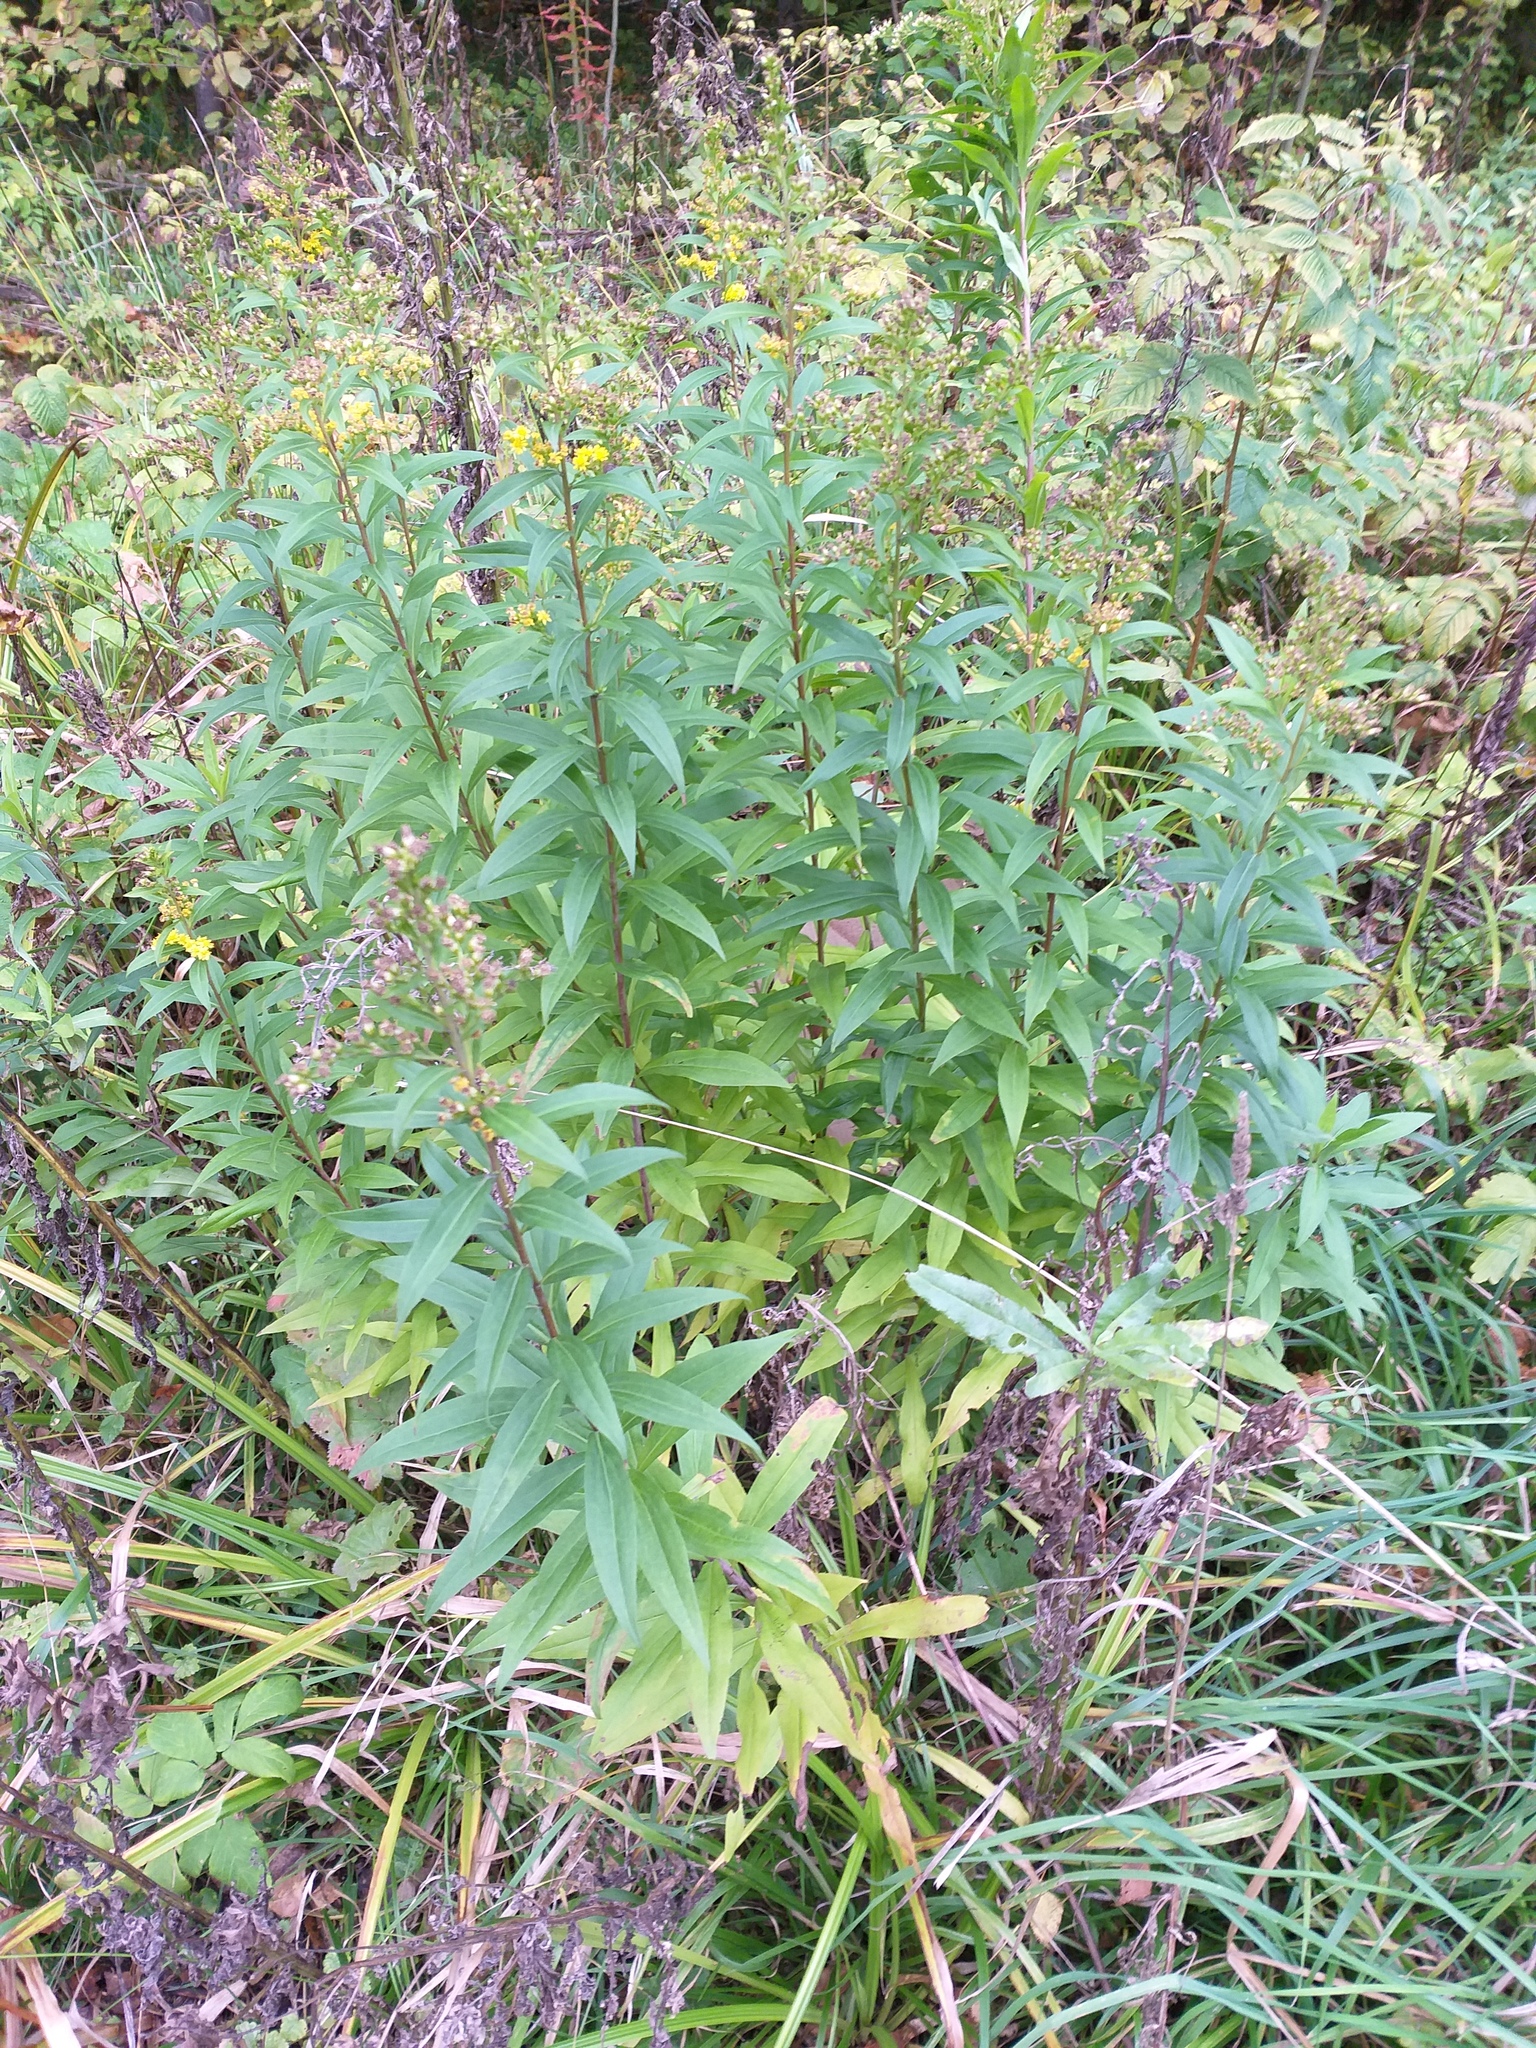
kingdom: Plantae
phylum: Tracheophyta
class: Magnoliopsida
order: Asterales
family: Asteraceae
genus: Solidago
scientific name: Solidago gigantea
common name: Giant goldenrod
